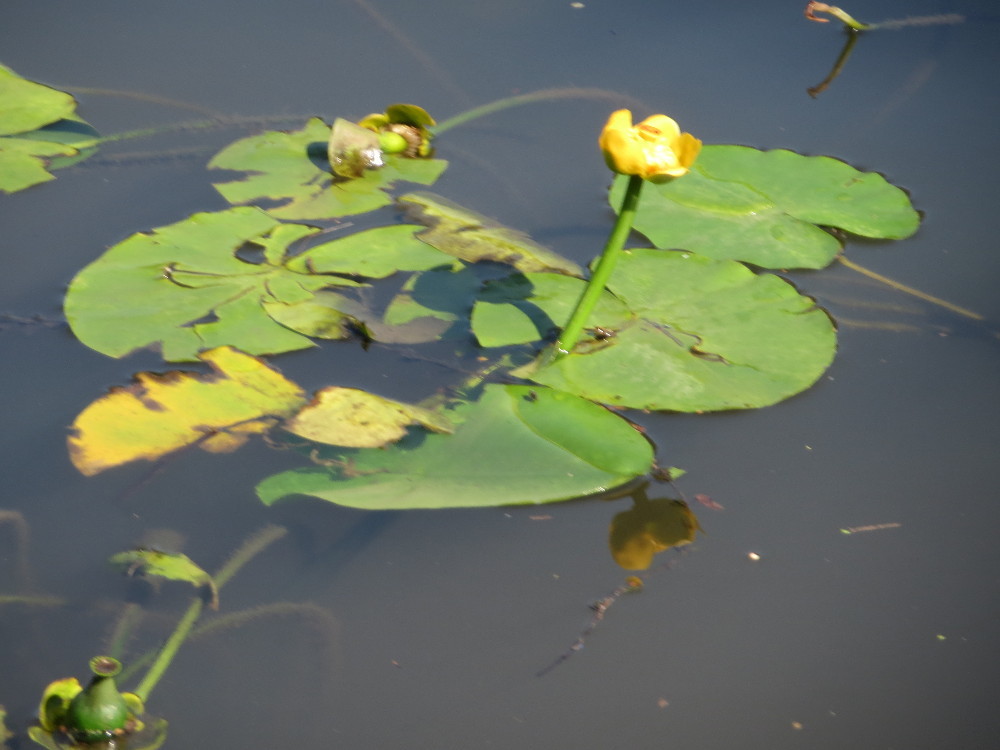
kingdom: Plantae
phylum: Tracheophyta
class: Magnoliopsida
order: Nymphaeales
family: Nymphaeaceae
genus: Nuphar
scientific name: Nuphar lutea
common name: Yellow water-lily
